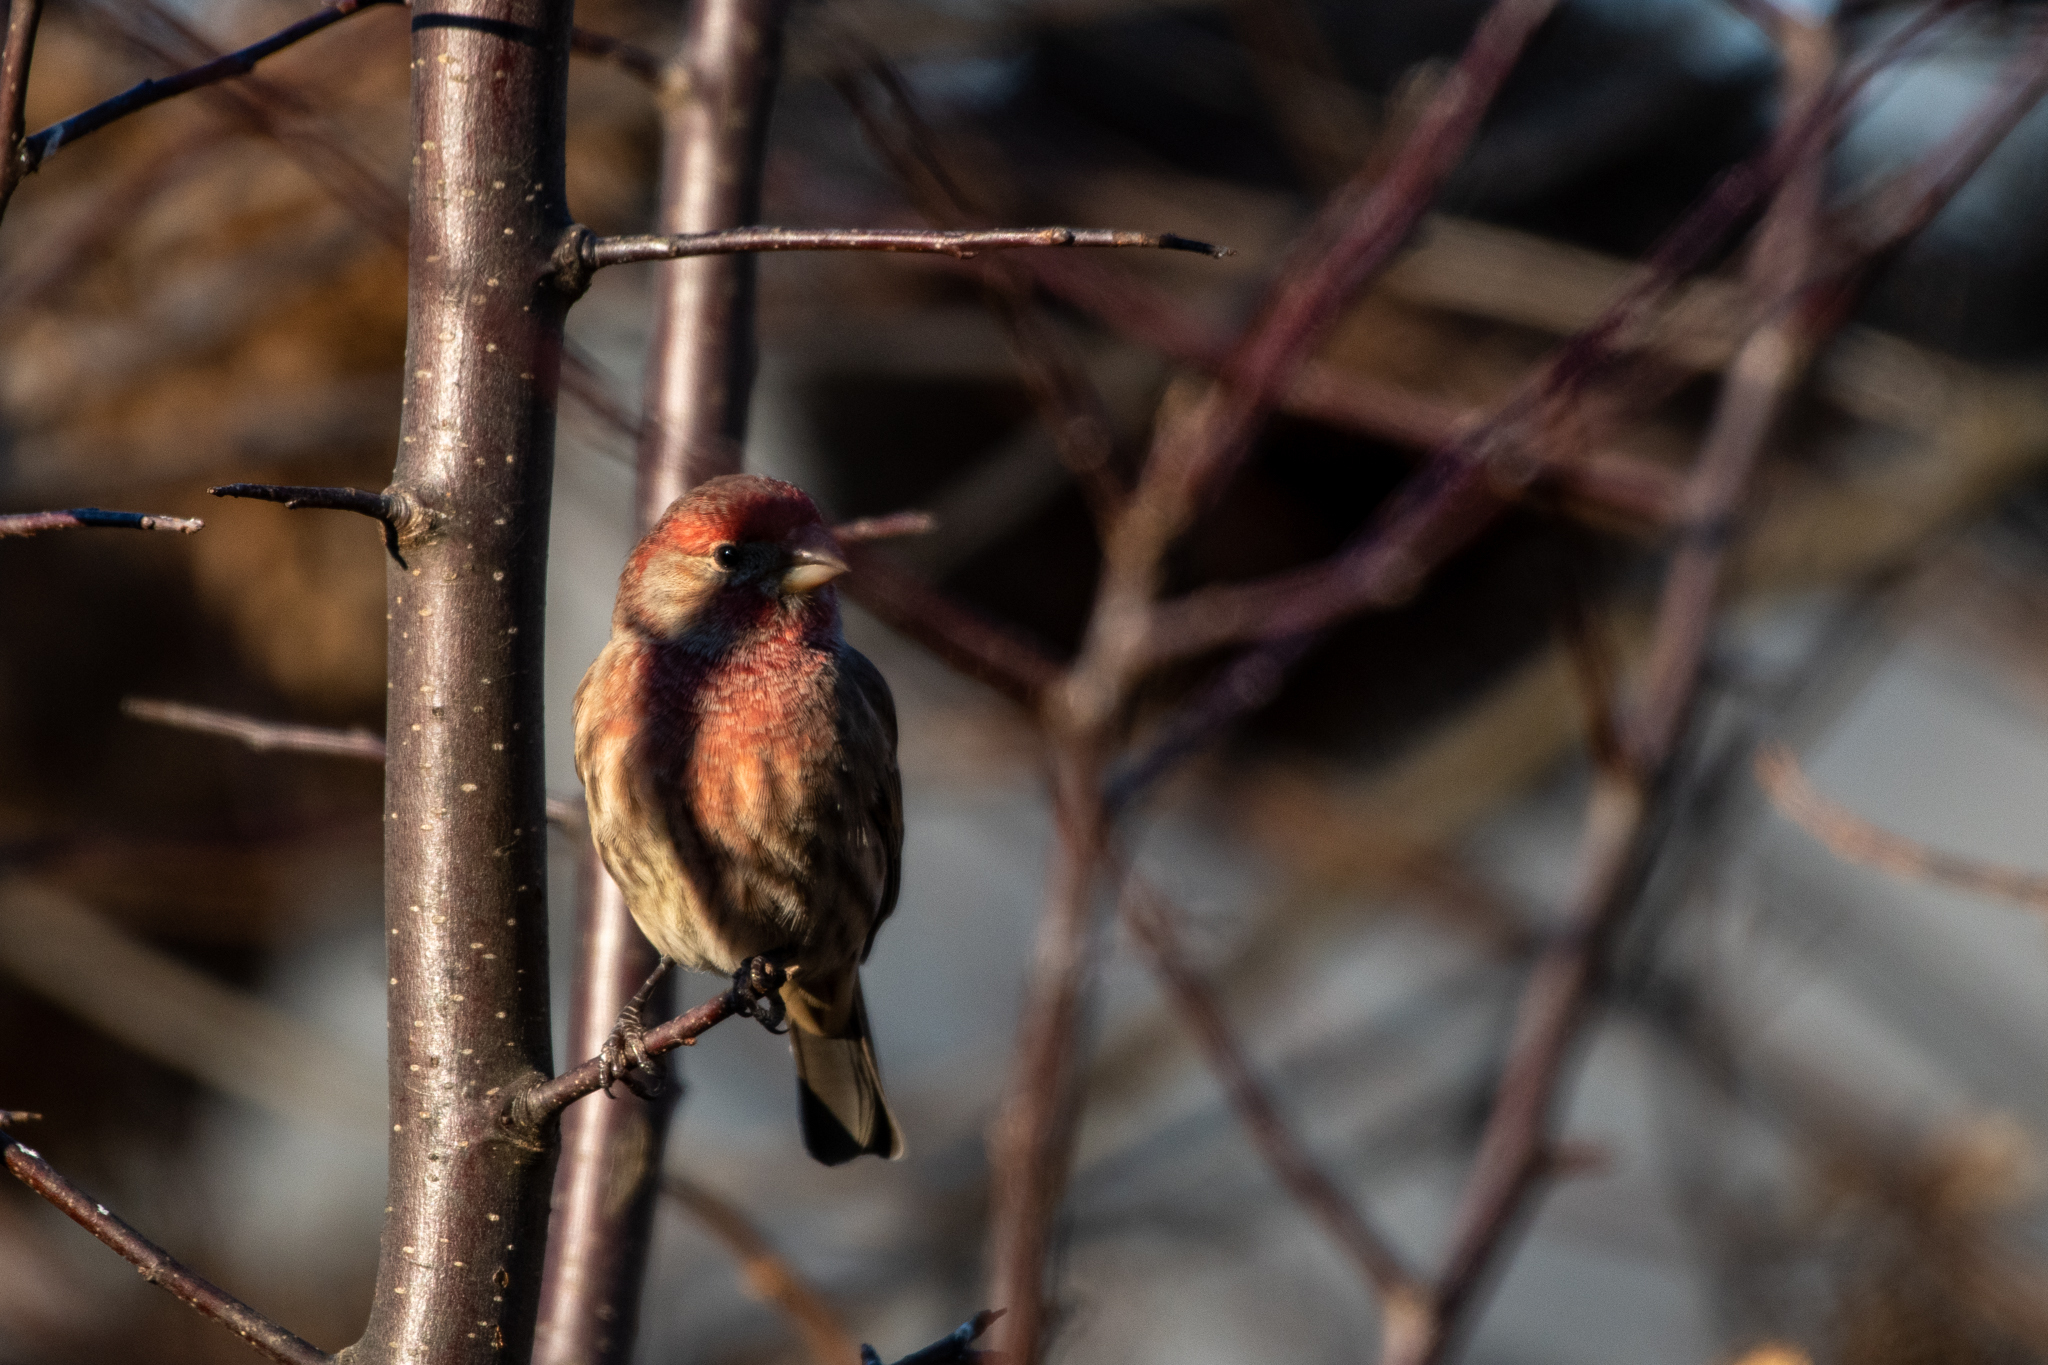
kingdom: Animalia
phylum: Chordata
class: Aves
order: Passeriformes
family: Fringillidae
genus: Haemorhous
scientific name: Haemorhous mexicanus
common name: House finch
